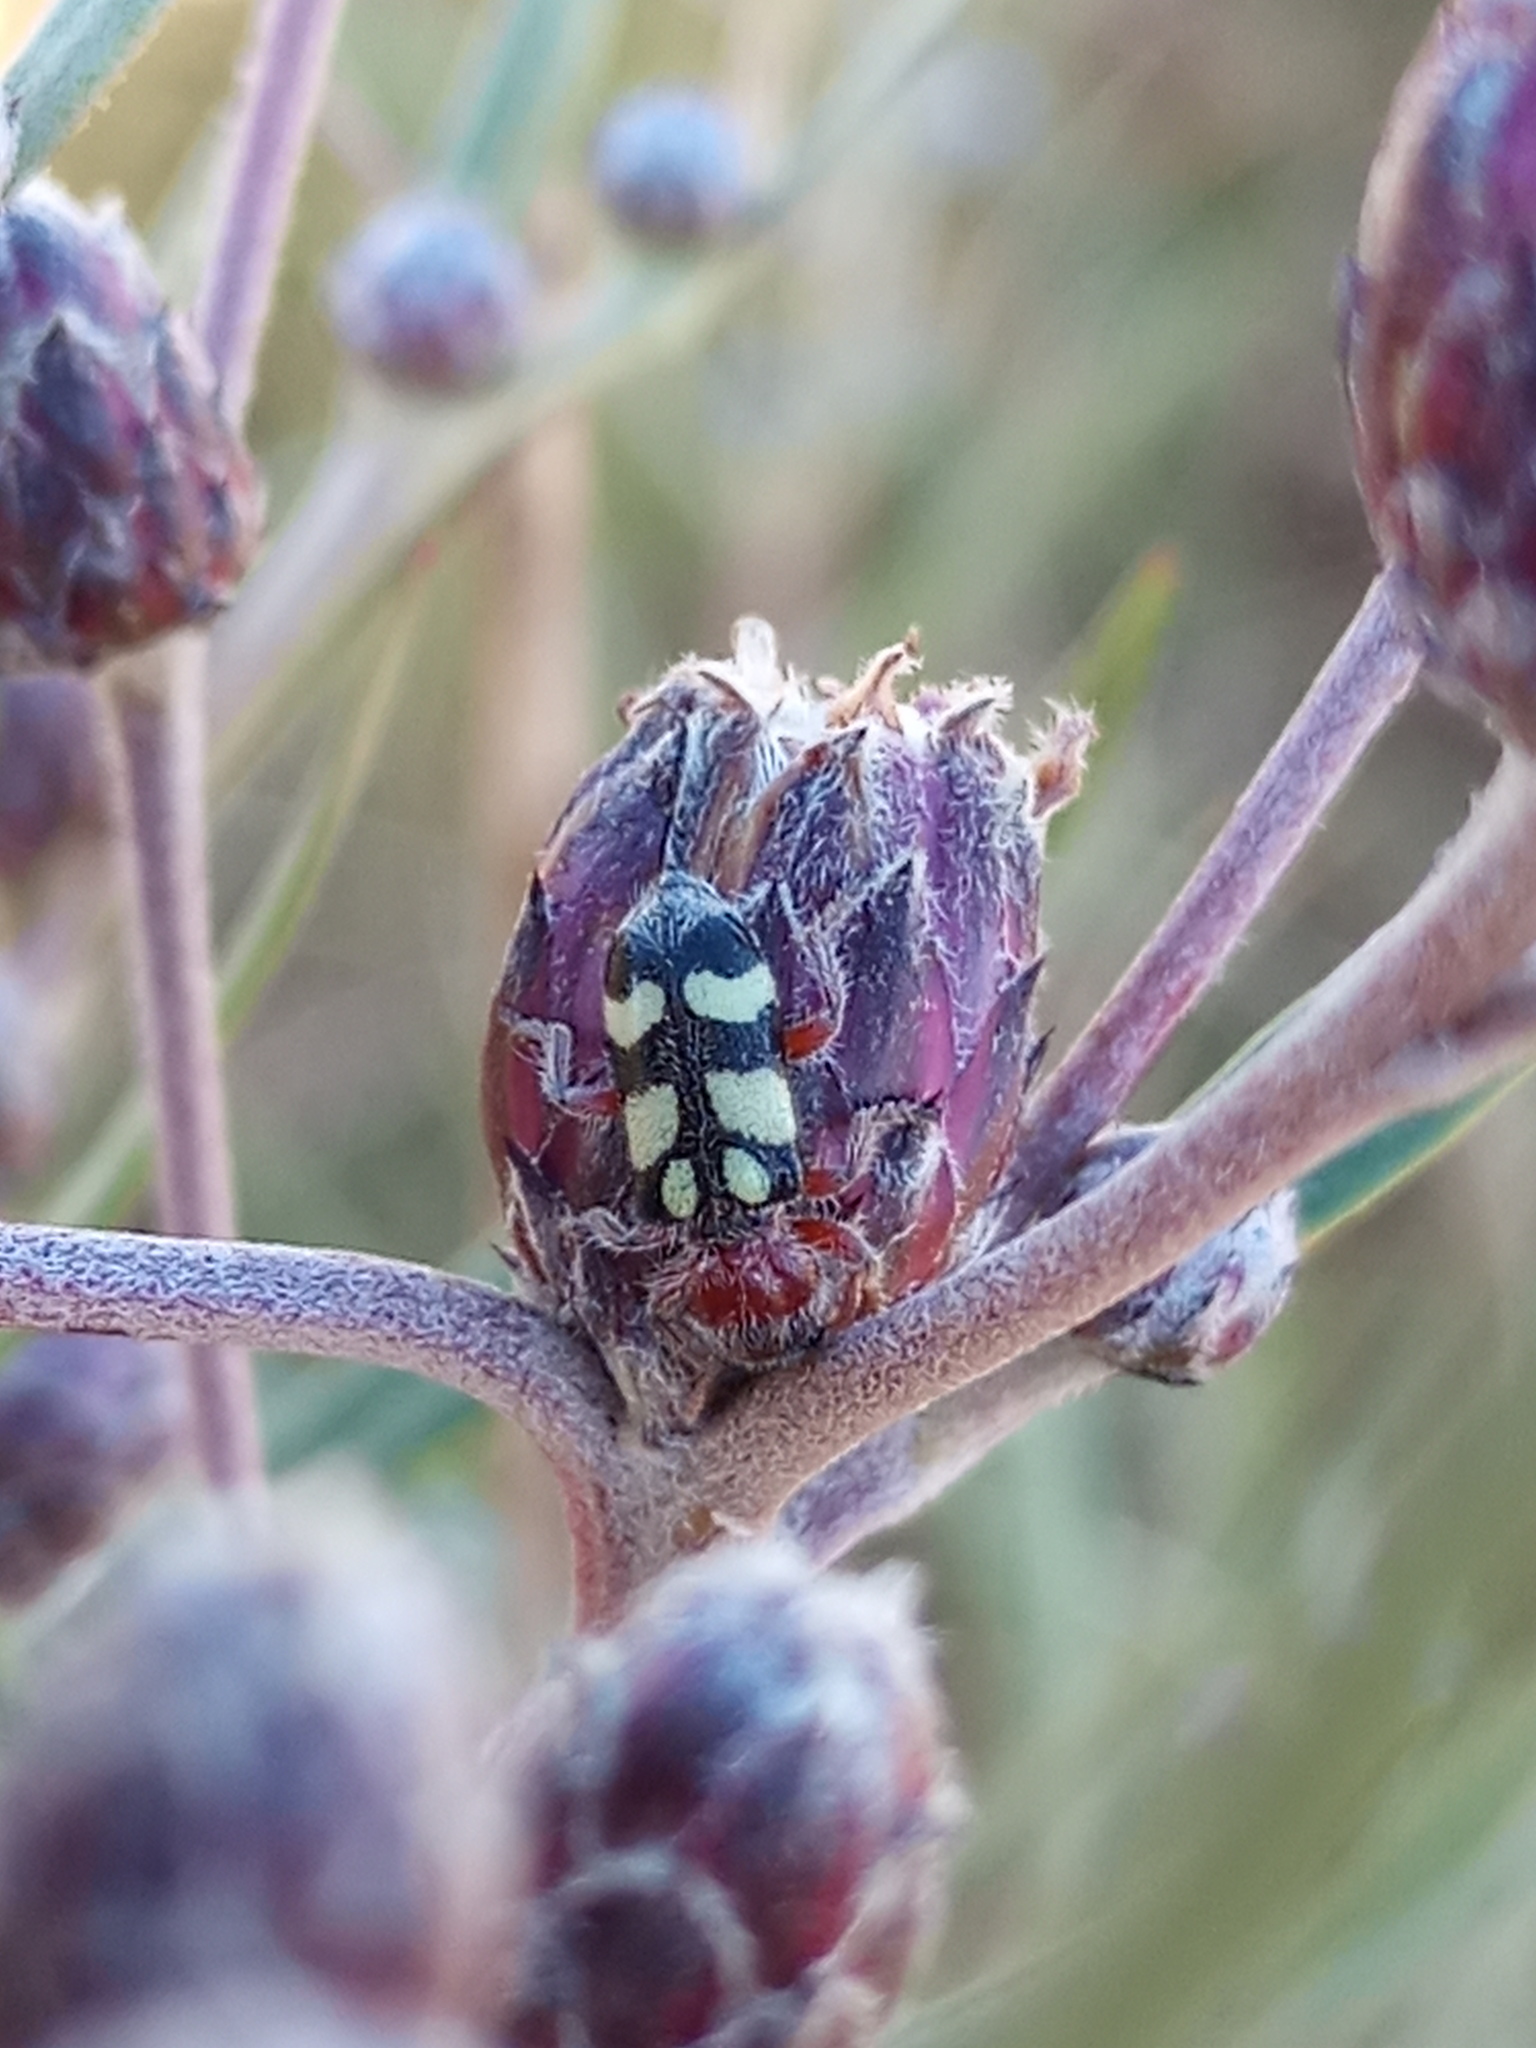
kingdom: Animalia
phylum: Arthropoda
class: Insecta
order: Coleoptera
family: Cleridae
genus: Enoclerus
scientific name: Enoclerus
